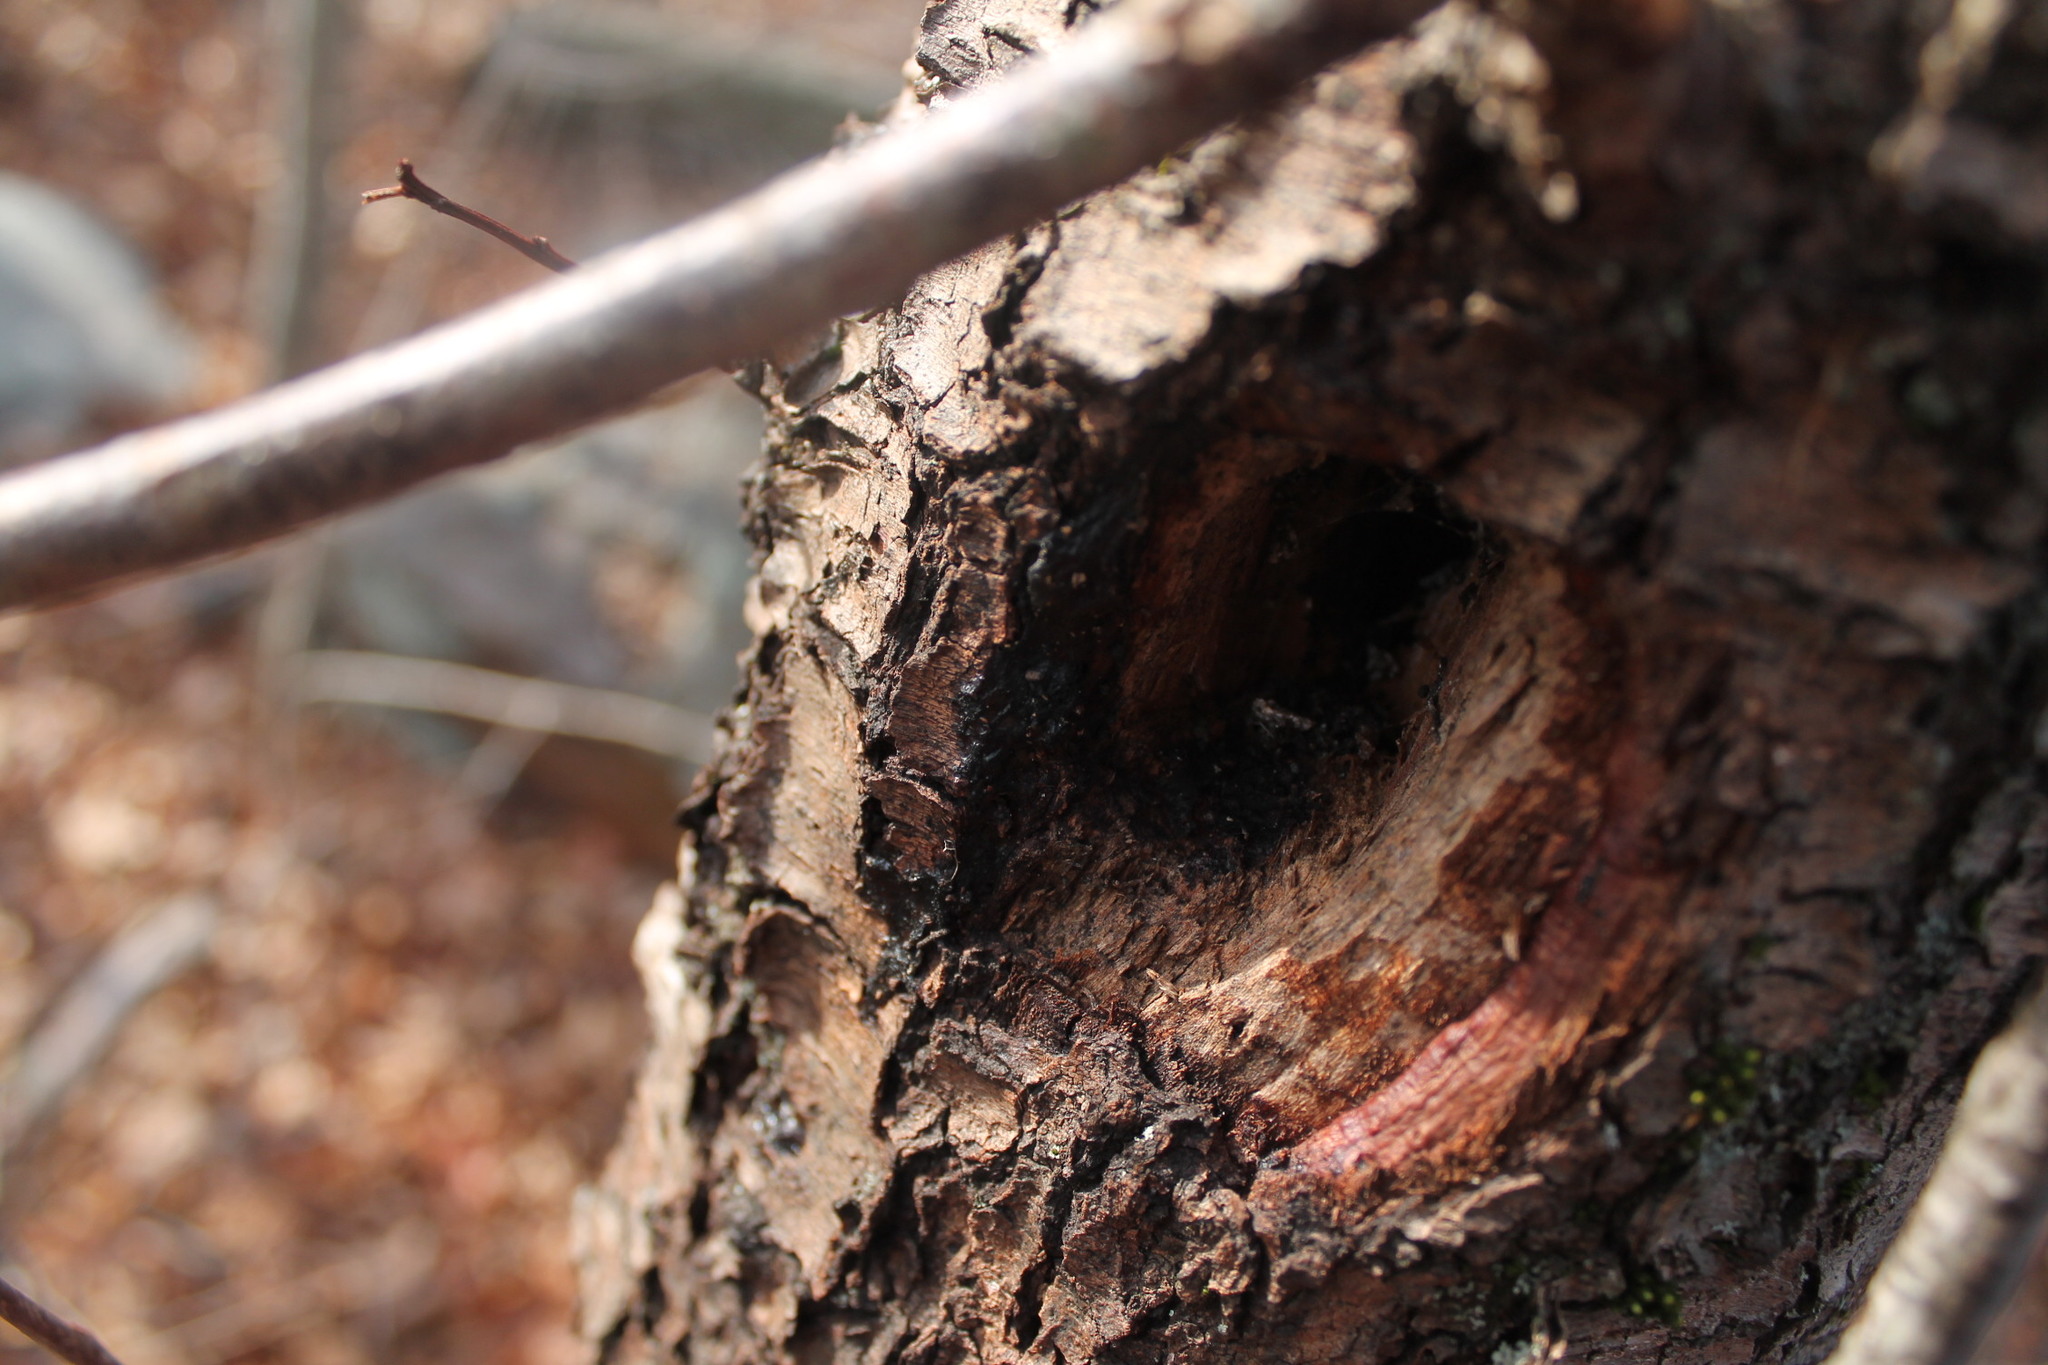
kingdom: Animalia
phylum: Chordata
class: Aves
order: Piciformes
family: Picidae
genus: Dryocopus
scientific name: Dryocopus pileatus
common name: Pileated woodpecker
